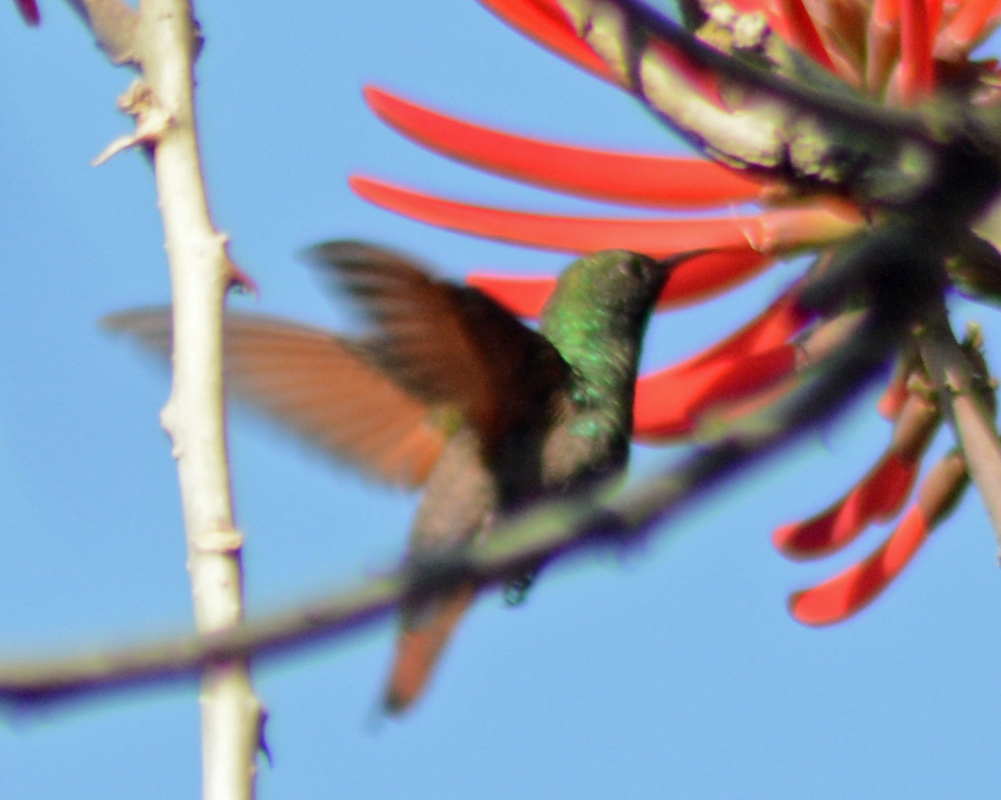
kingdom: Animalia
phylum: Chordata
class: Aves
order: Apodiformes
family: Trochilidae
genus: Saucerottia
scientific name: Saucerottia beryllina
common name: Berylline hummingbird
